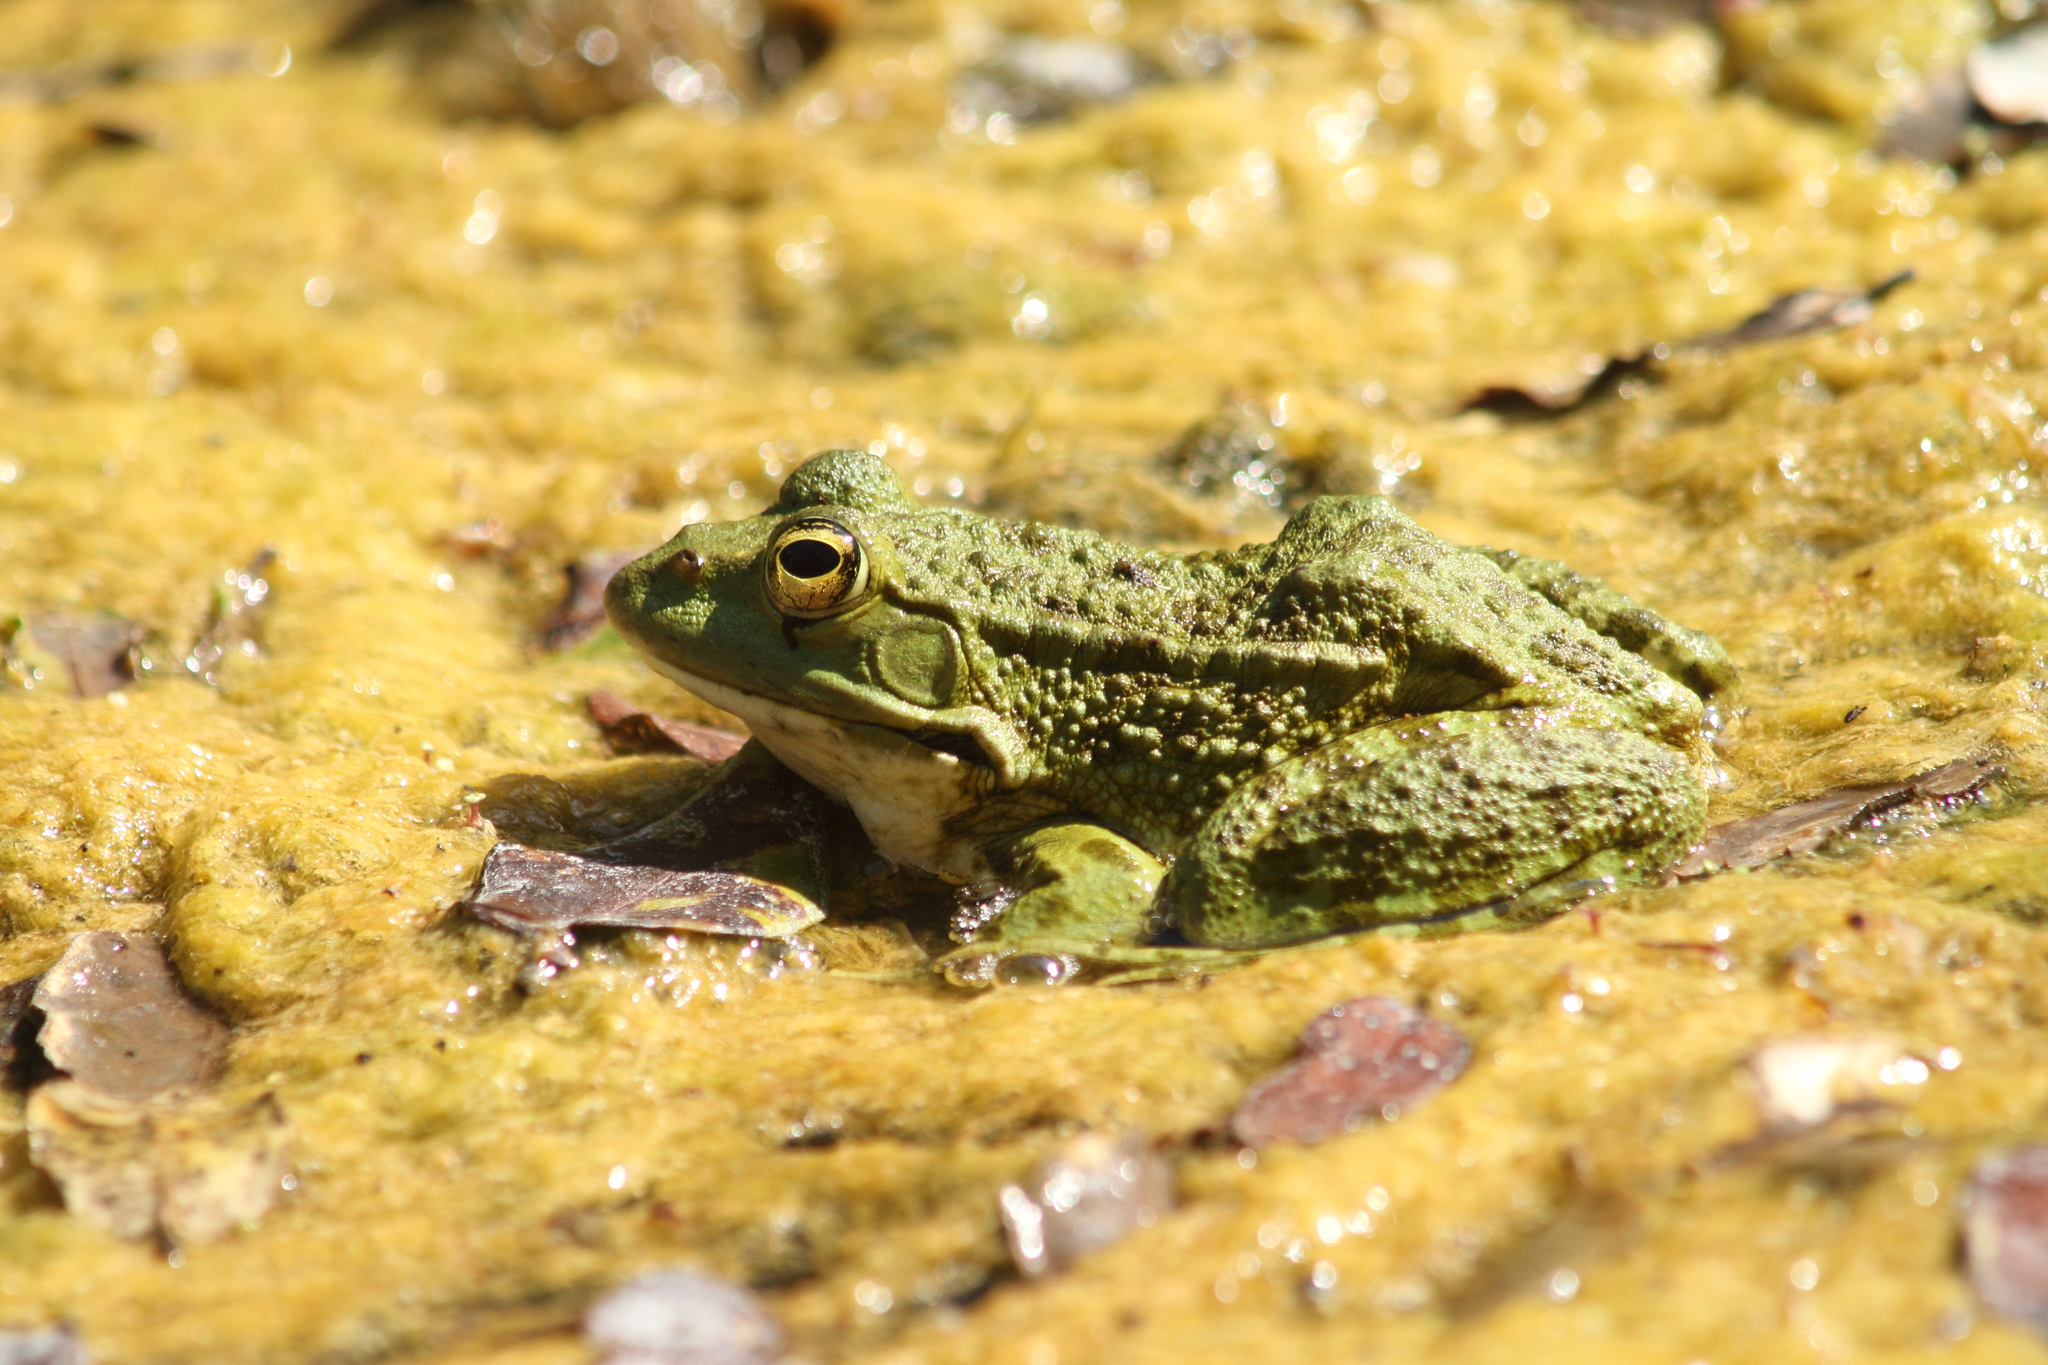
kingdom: Animalia
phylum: Chordata
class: Amphibia
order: Anura
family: Ranidae
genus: Pelophylax
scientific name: Pelophylax
